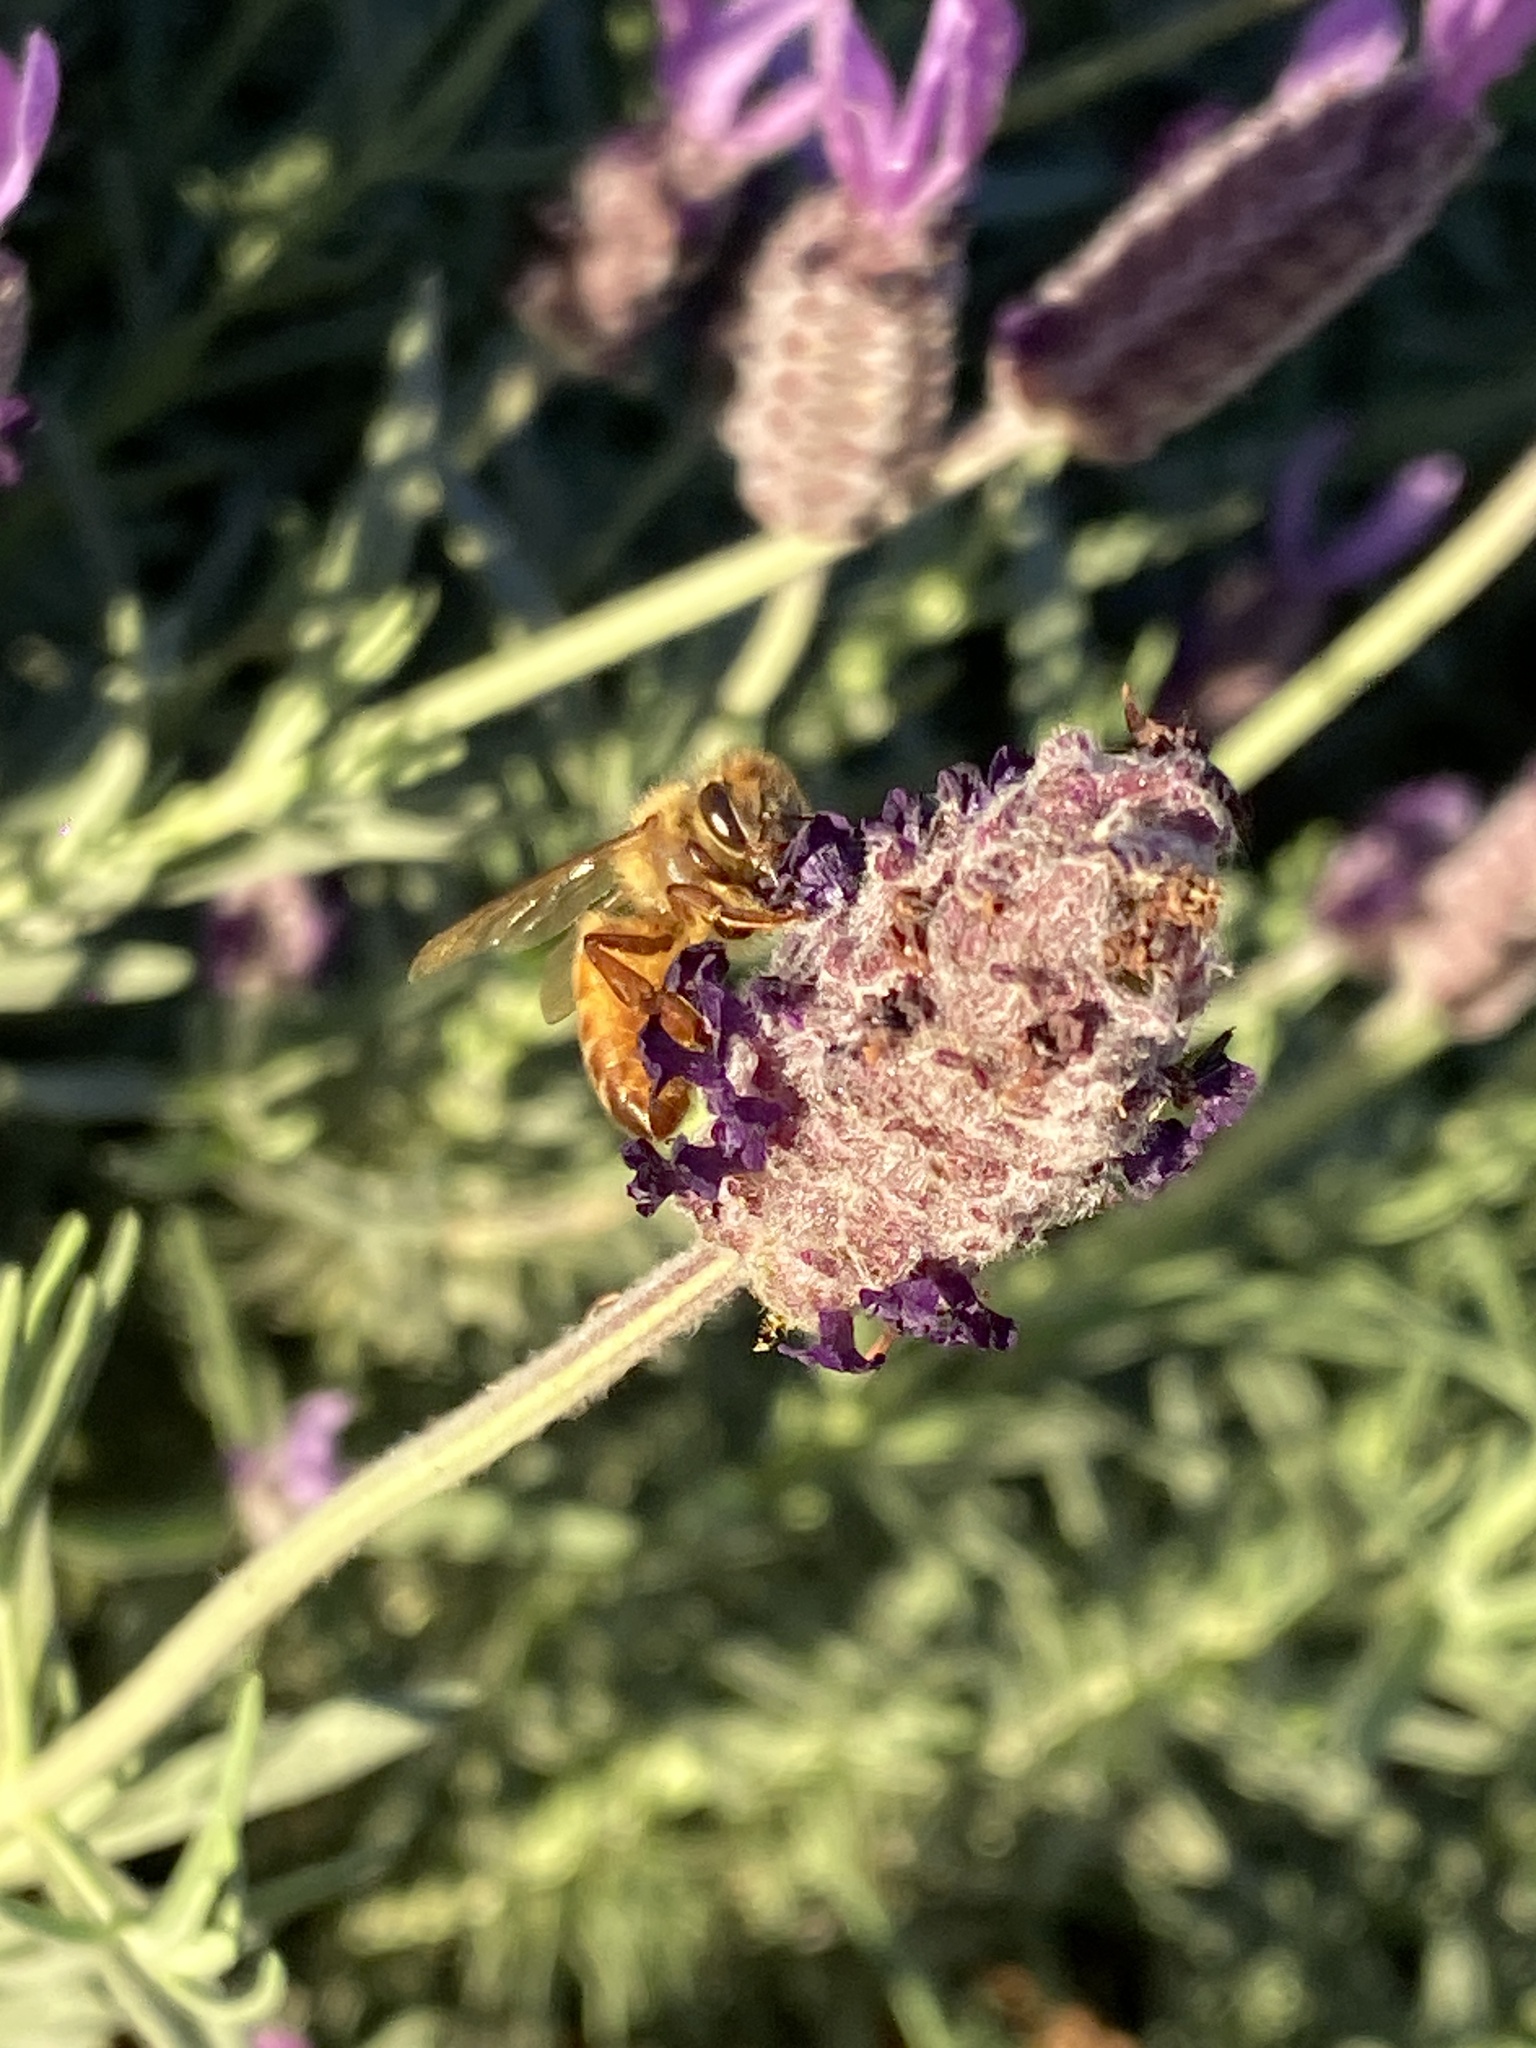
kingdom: Animalia
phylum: Arthropoda
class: Insecta
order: Hymenoptera
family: Apidae
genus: Apis
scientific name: Apis mellifera
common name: Honey bee
